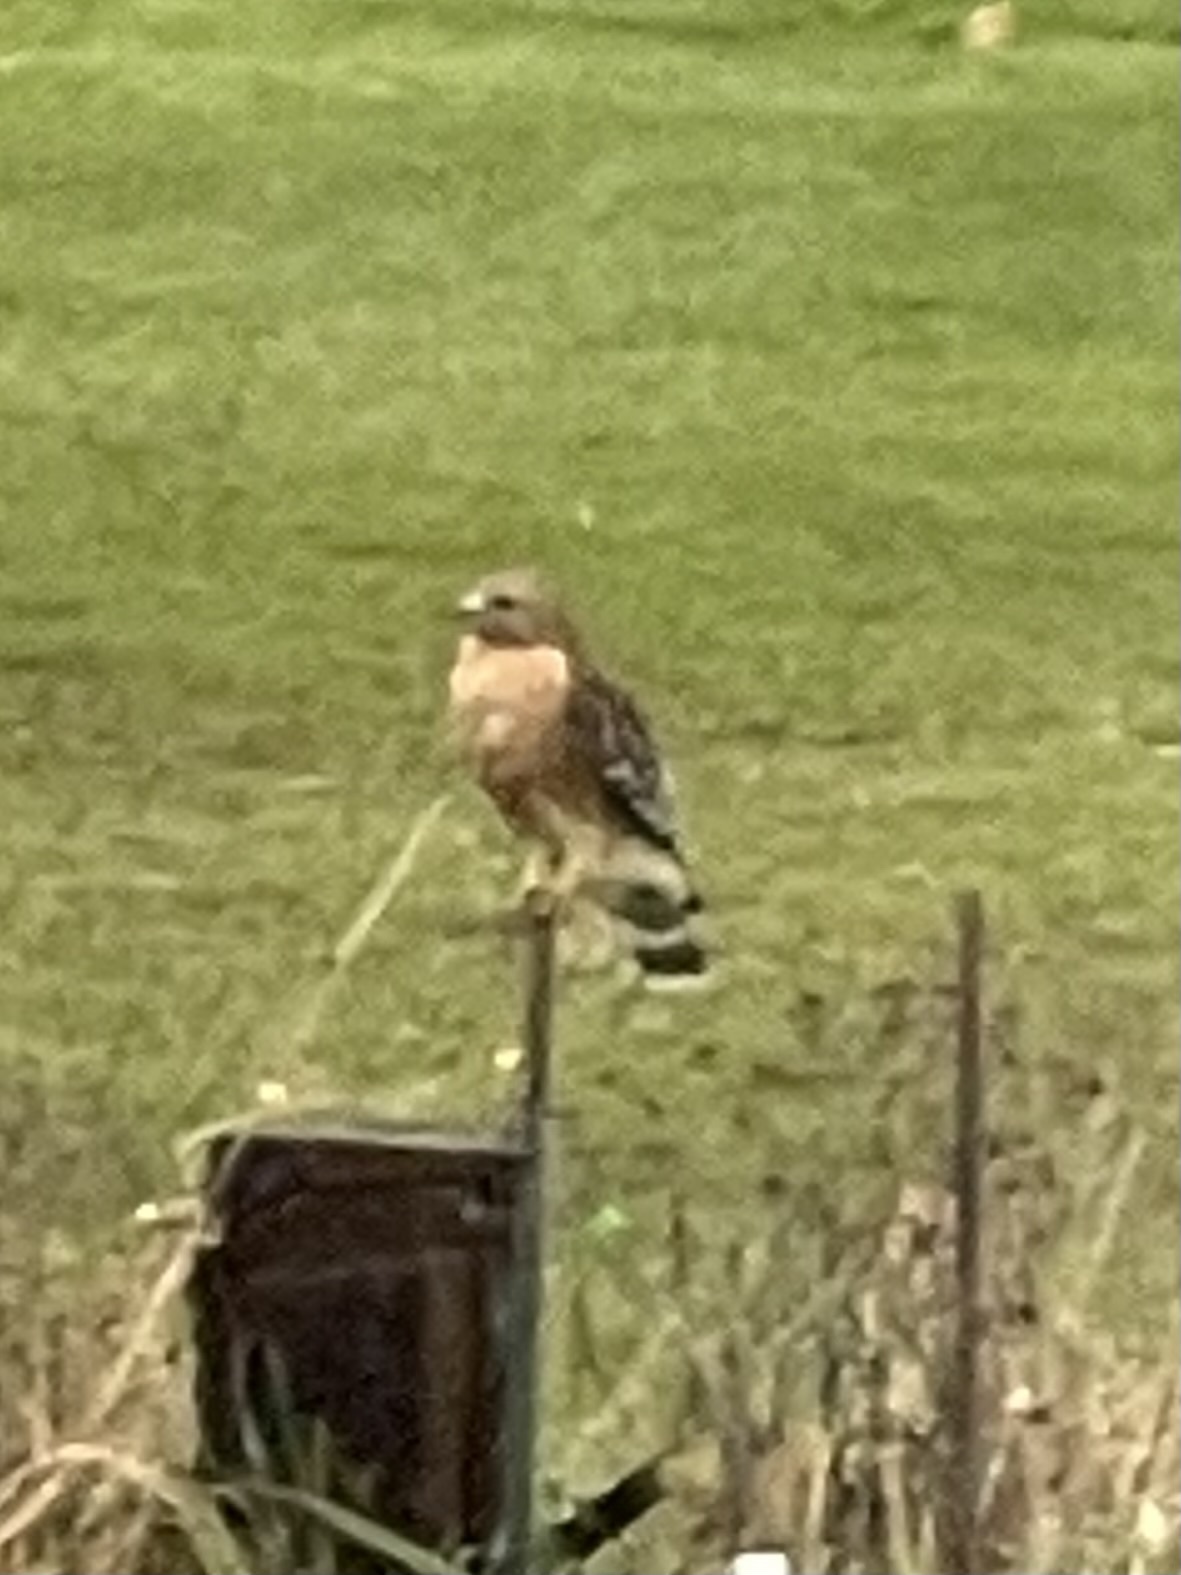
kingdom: Animalia
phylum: Chordata
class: Aves
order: Accipitriformes
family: Accipitridae
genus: Buteo
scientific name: Buteo lineatus
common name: Red-shouldered hawk
